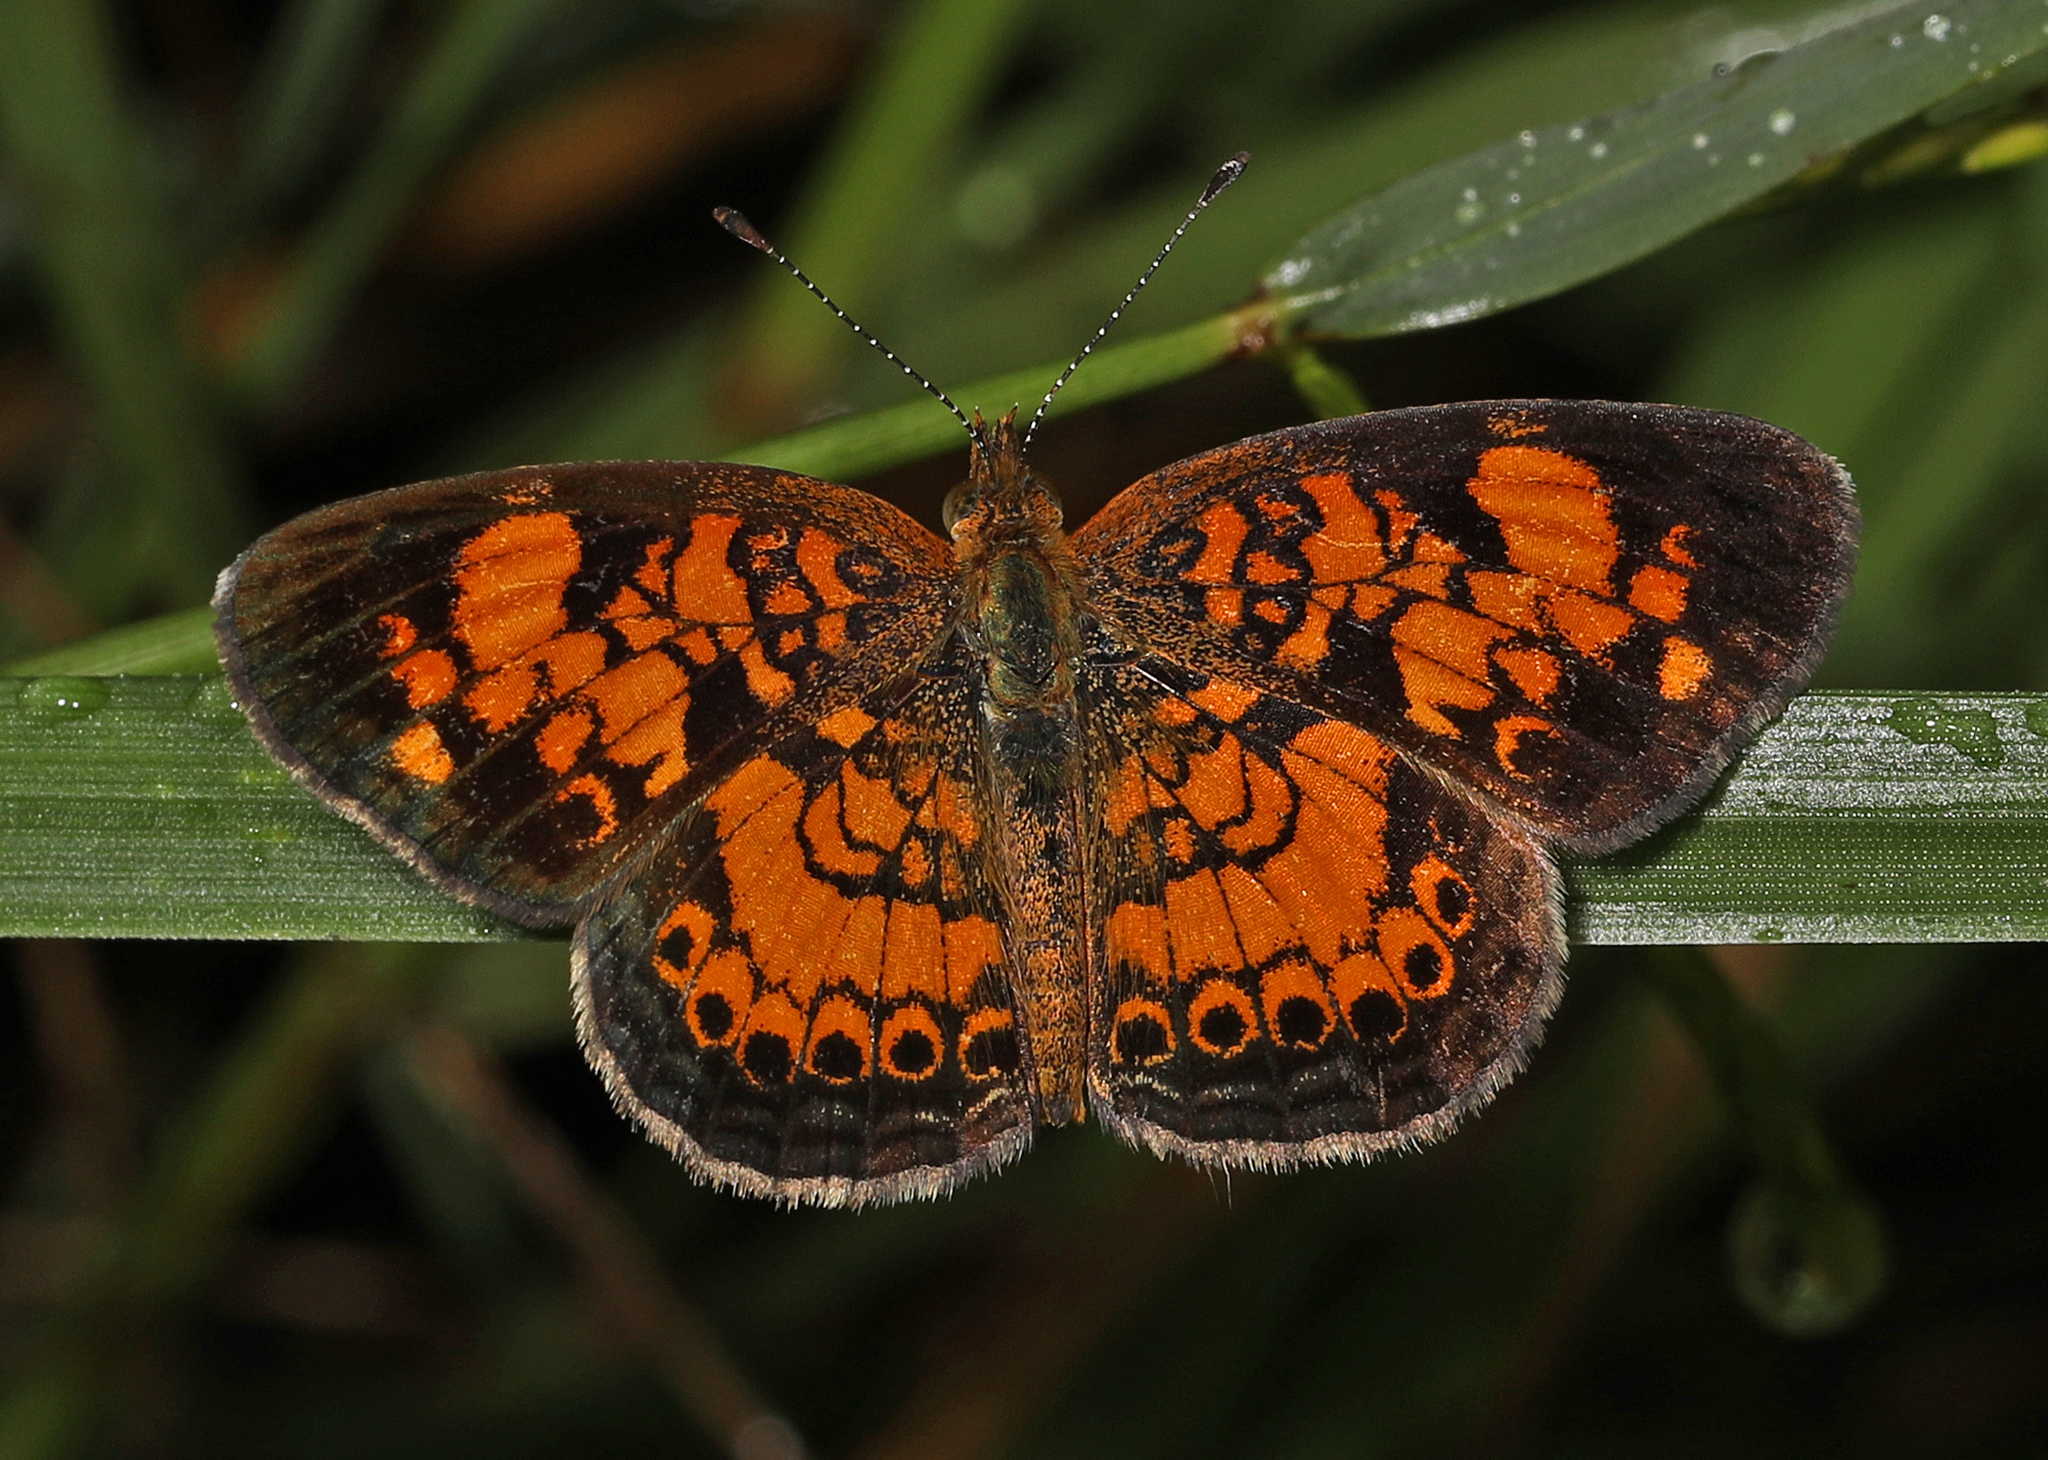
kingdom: Animalia
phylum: Arthropoda
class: Insecta
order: Lepidoptera
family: Nymphalidae
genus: Phyciodes
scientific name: Phyciodes tharos
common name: Pearl crescent
